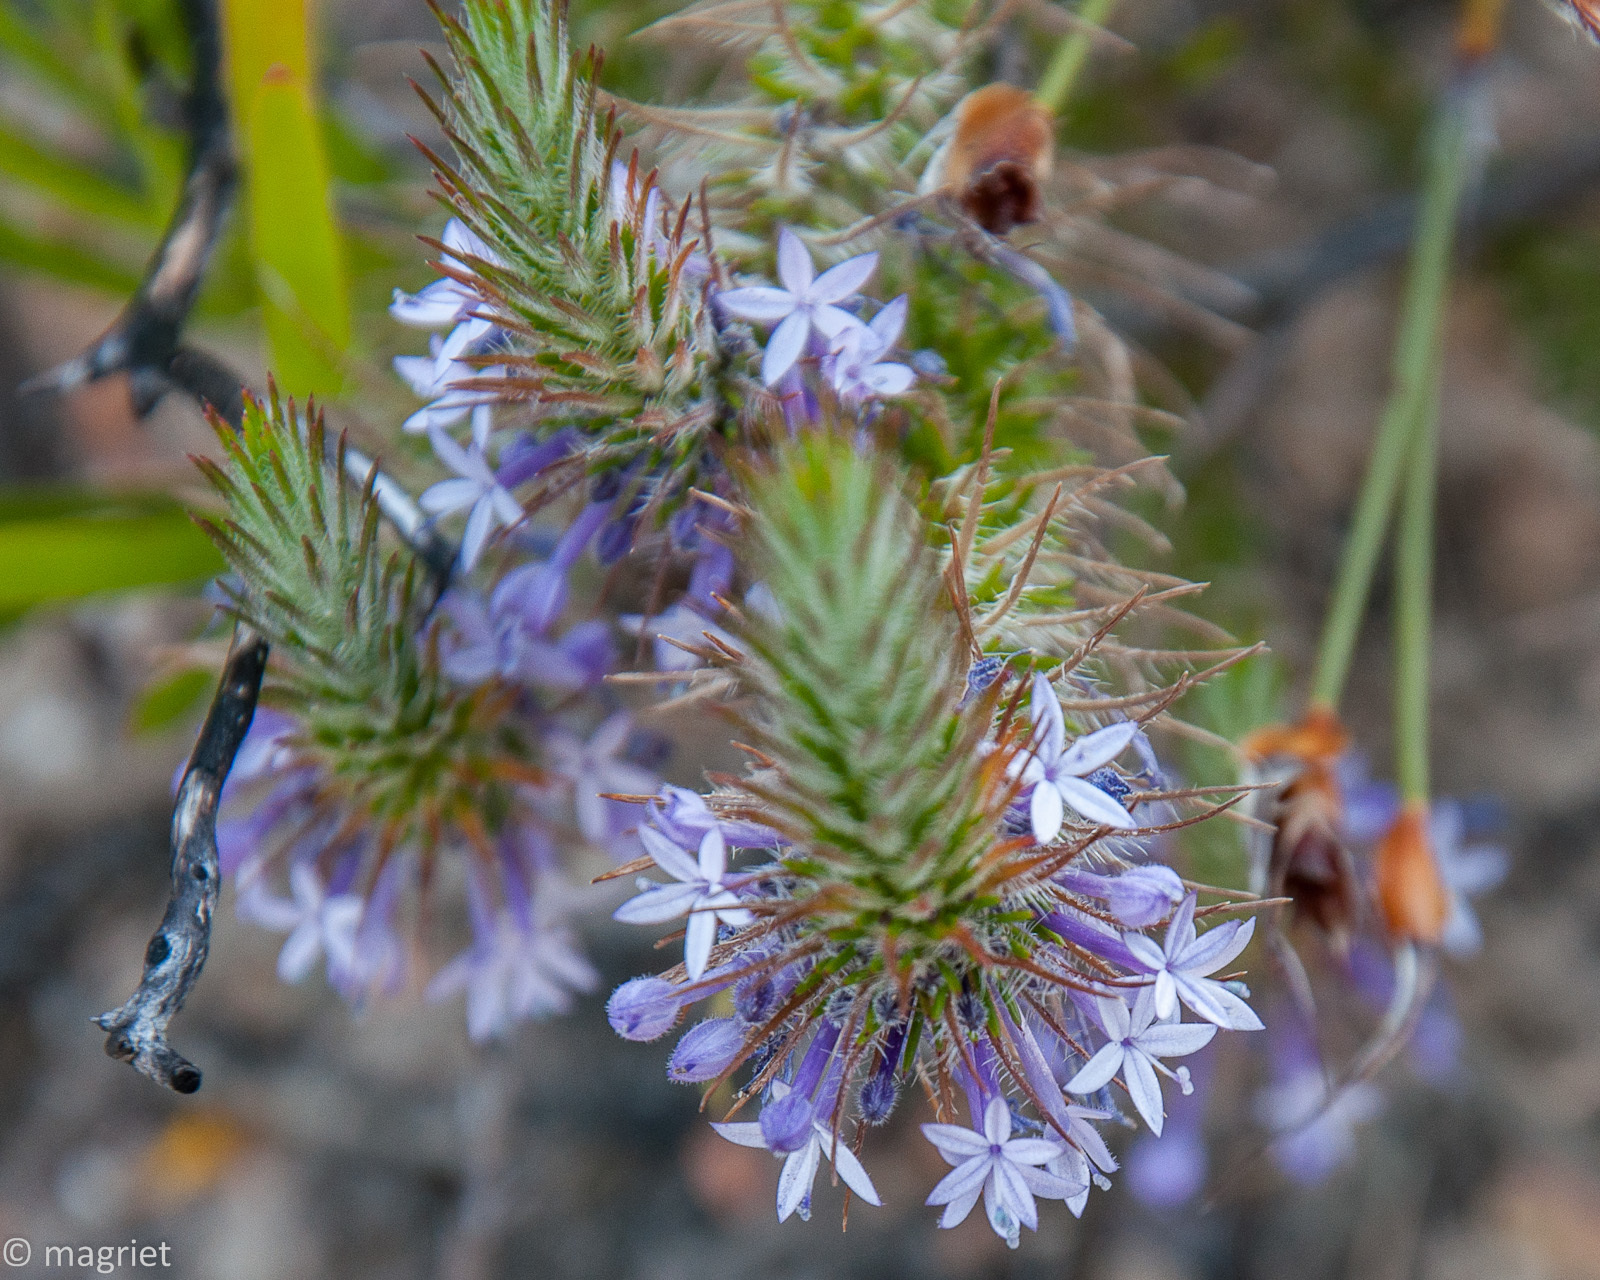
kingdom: Plantae
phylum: Tracheophyta
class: Magnoliopsida
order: Asterales
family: Campanulaceae
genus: Merciera
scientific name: Merciera azurea
